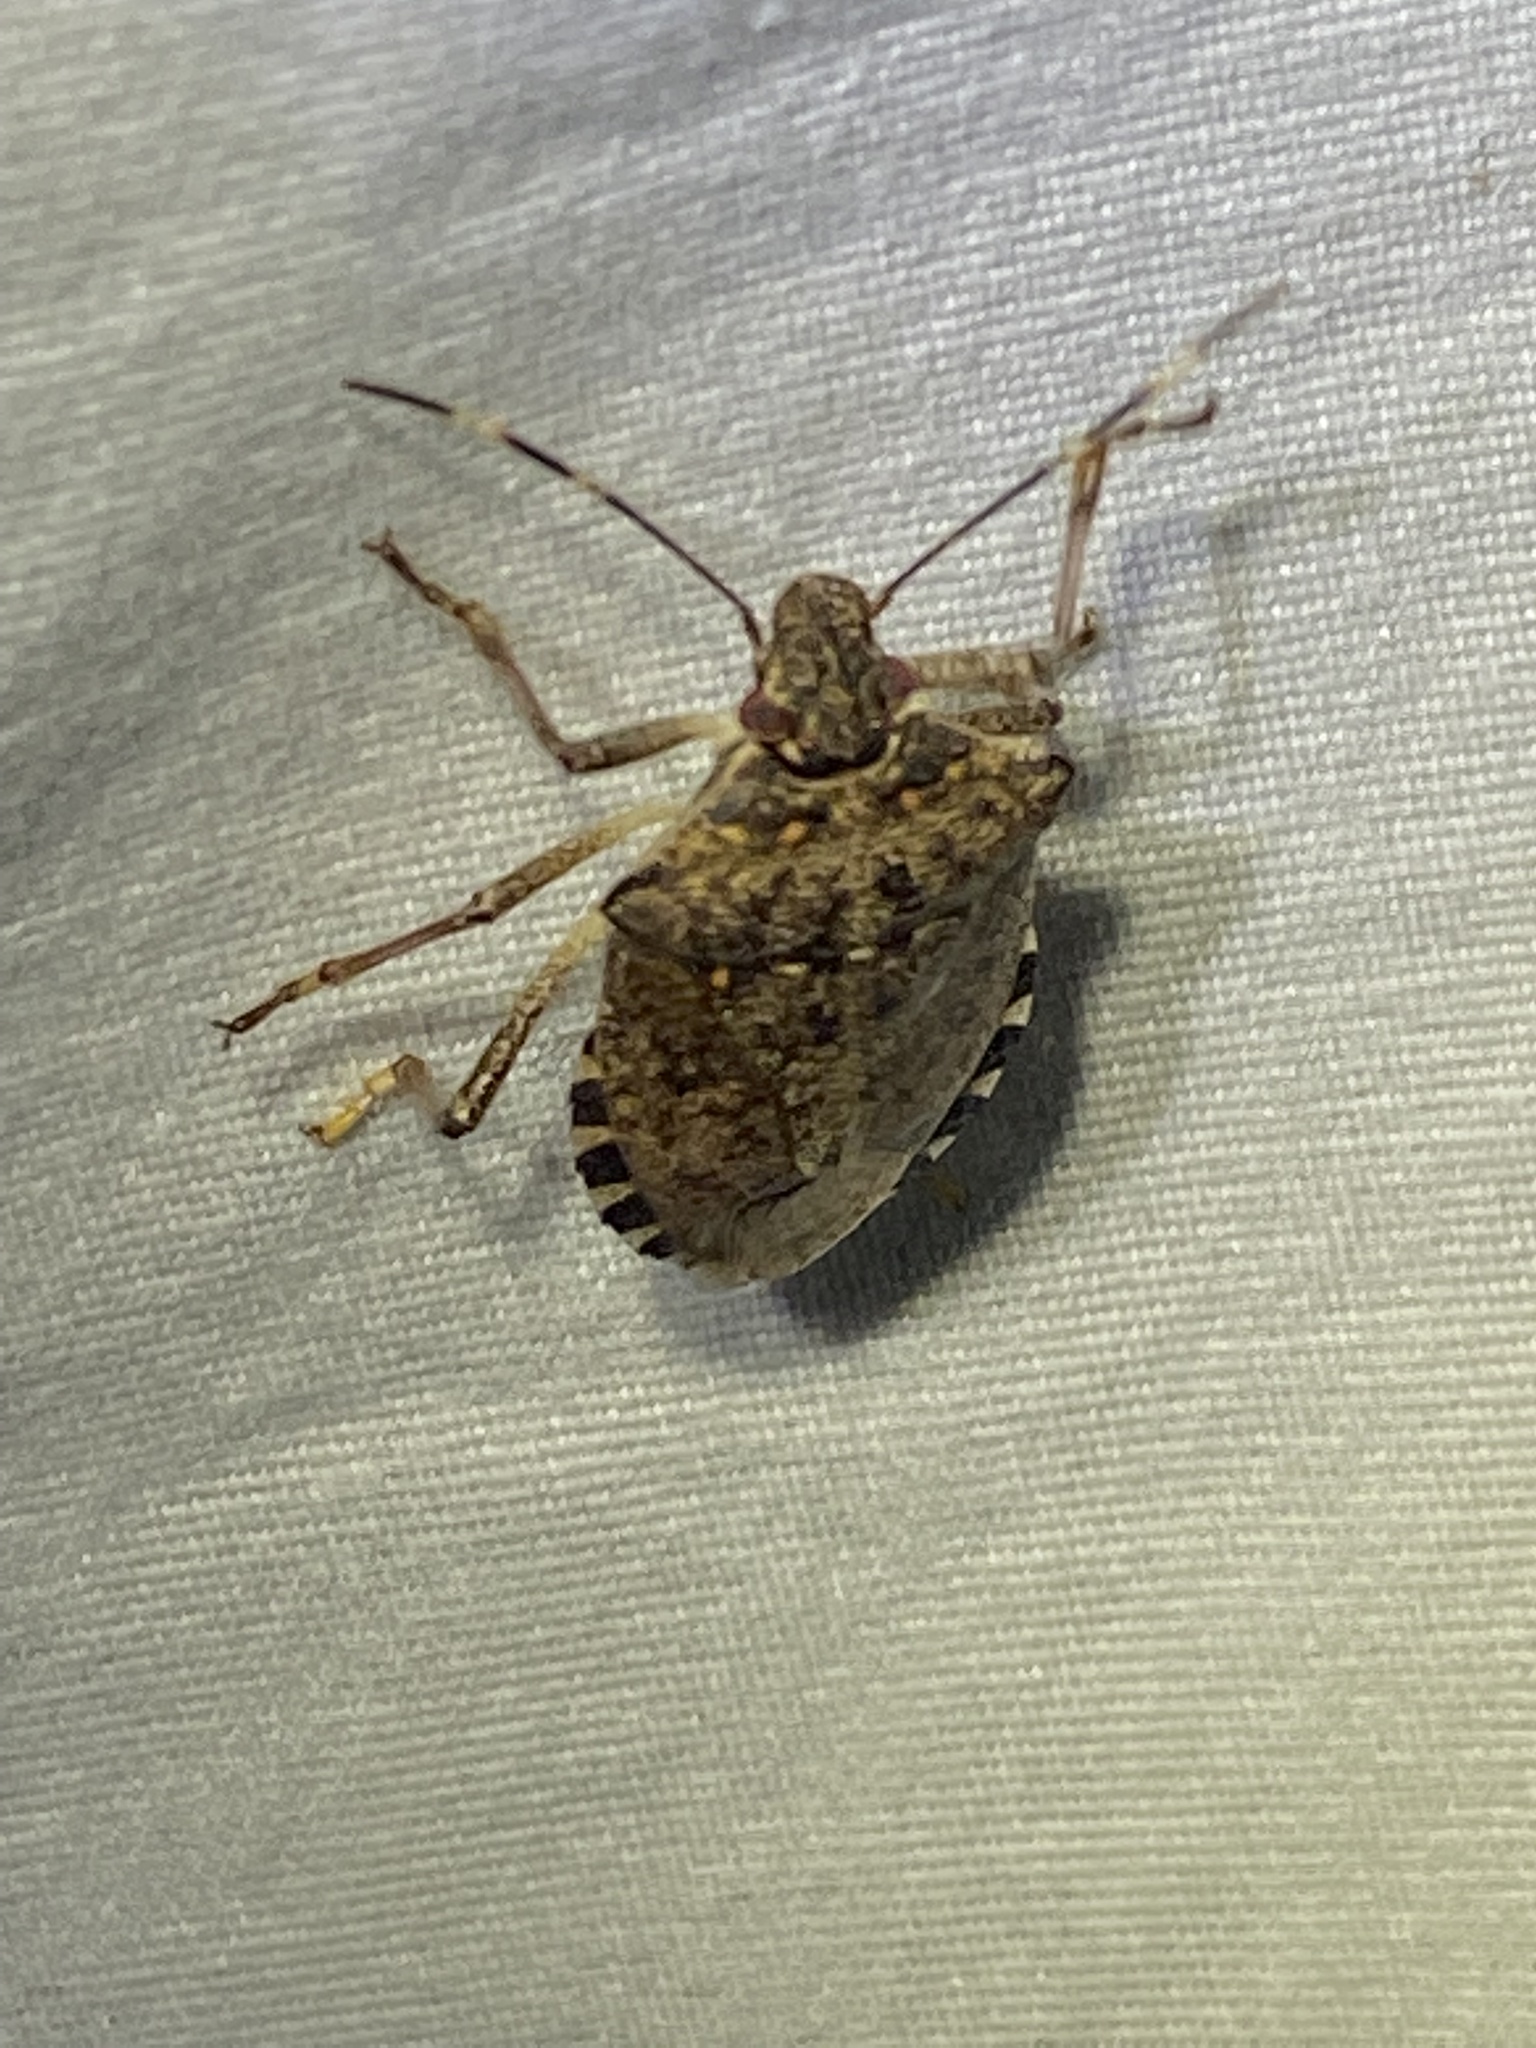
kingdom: Animalia
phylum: Arthropoda
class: Insecta
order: Hemiptera
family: Pentatomidae
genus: Halyomorpha
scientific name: Halyomorpha halys
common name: Brown marmorated stink bug
